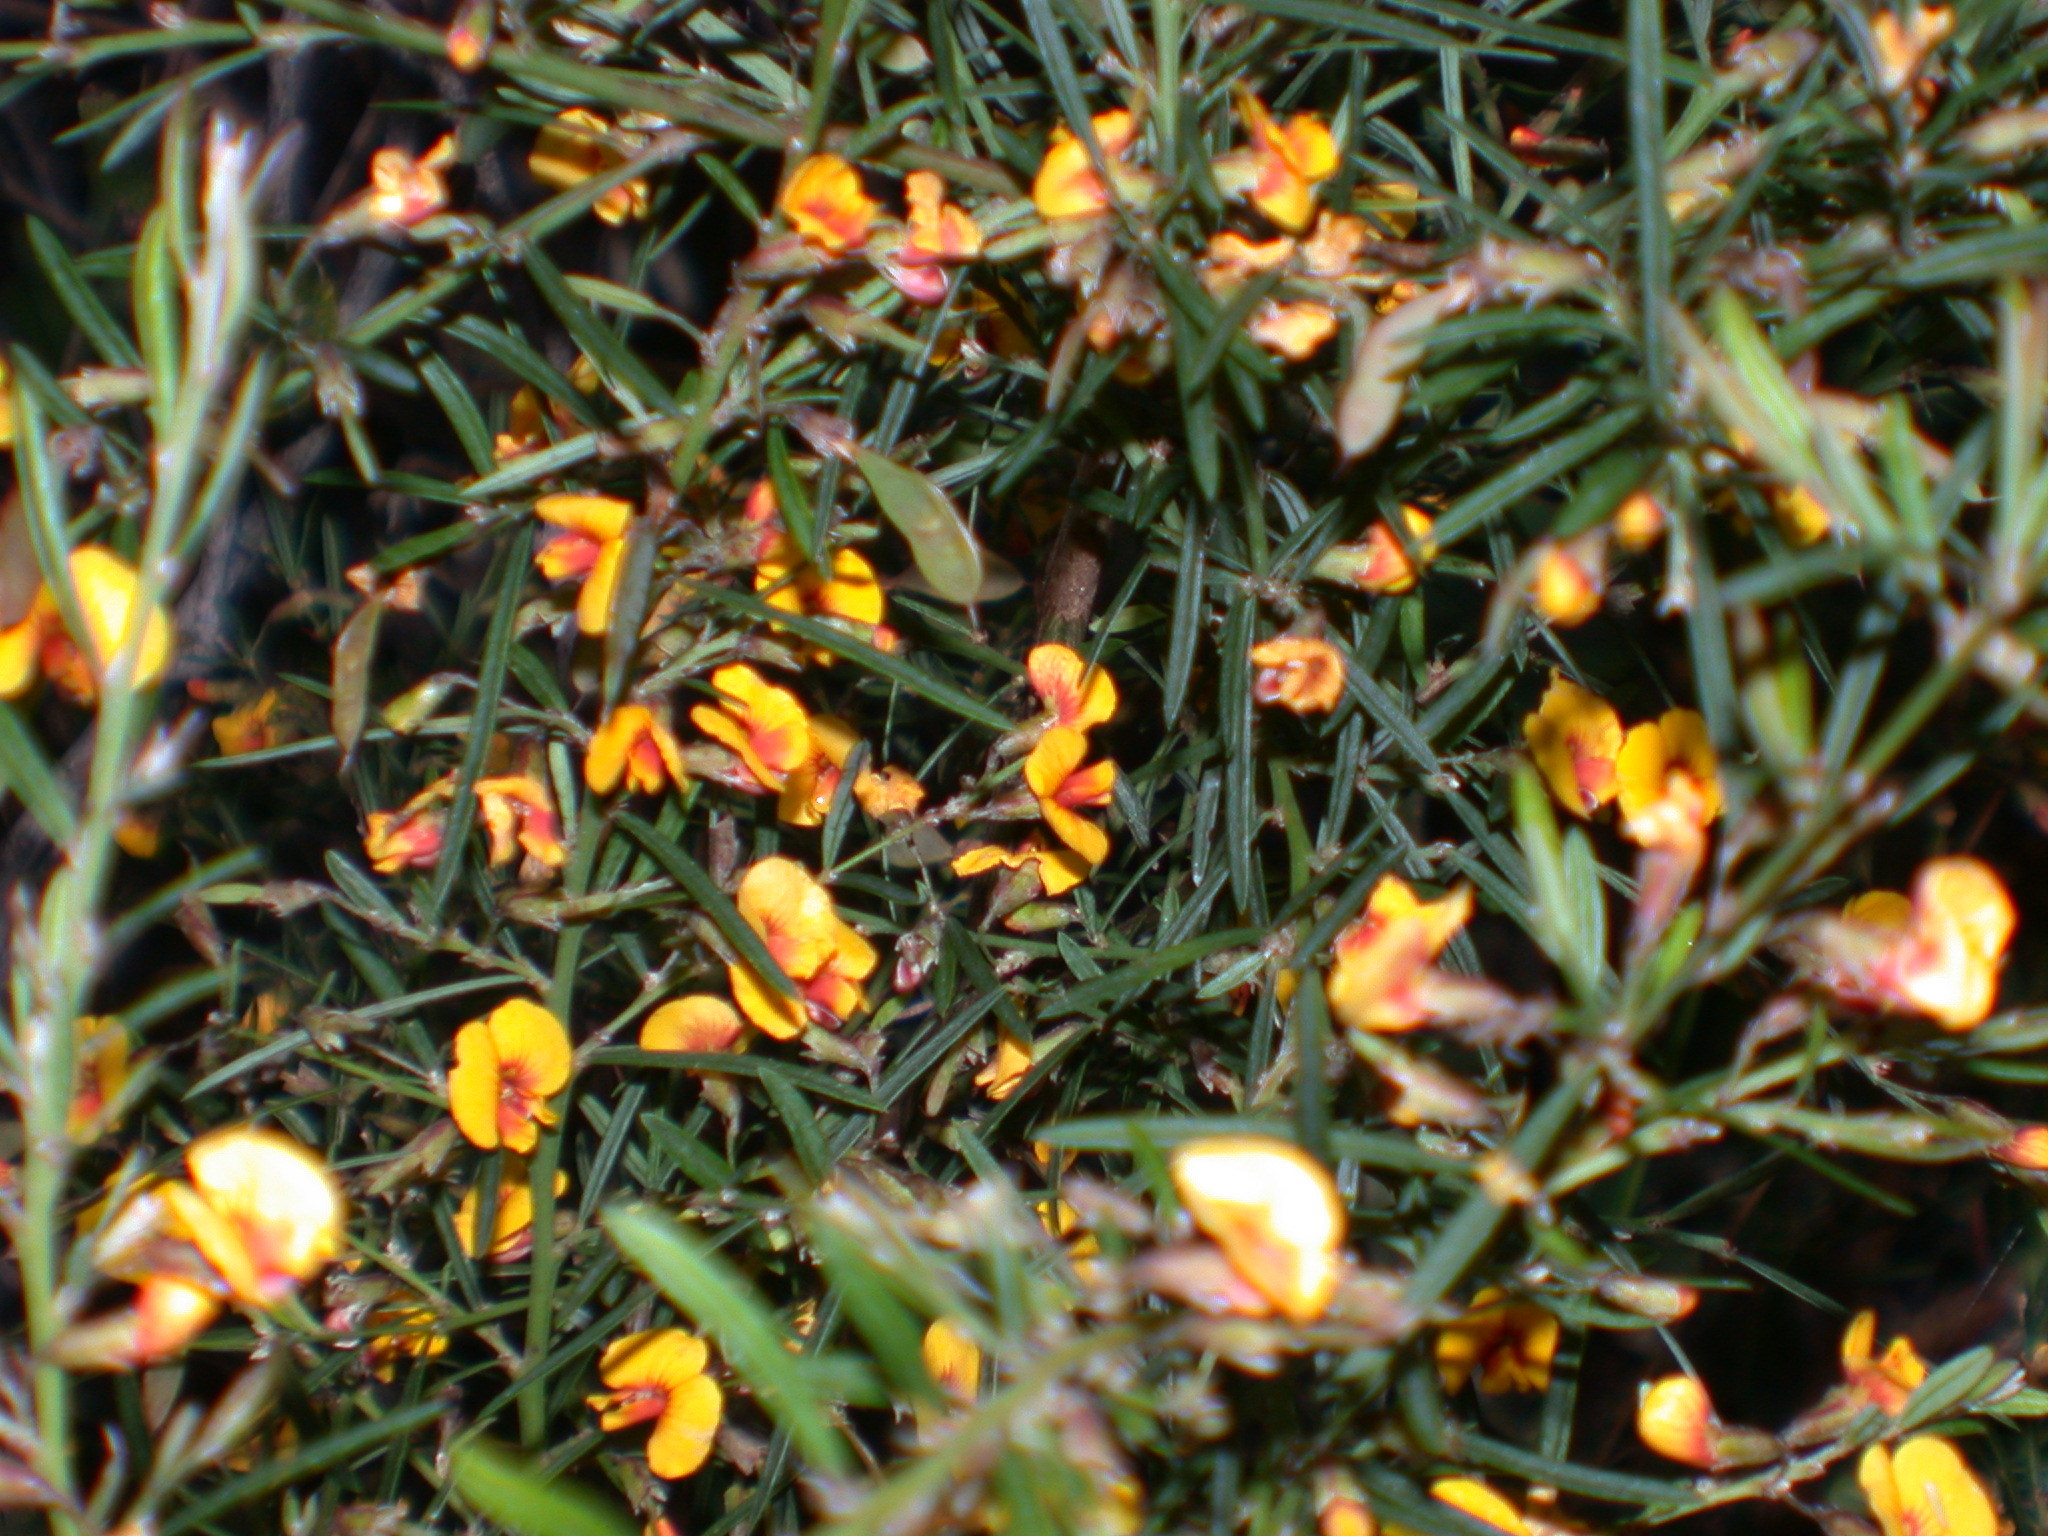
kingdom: Plantae
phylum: Tracheophyta
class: Magnoliopsida
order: Fabales
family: Fabaceae
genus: Bossiaea
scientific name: Bossiaea eriocarpa
